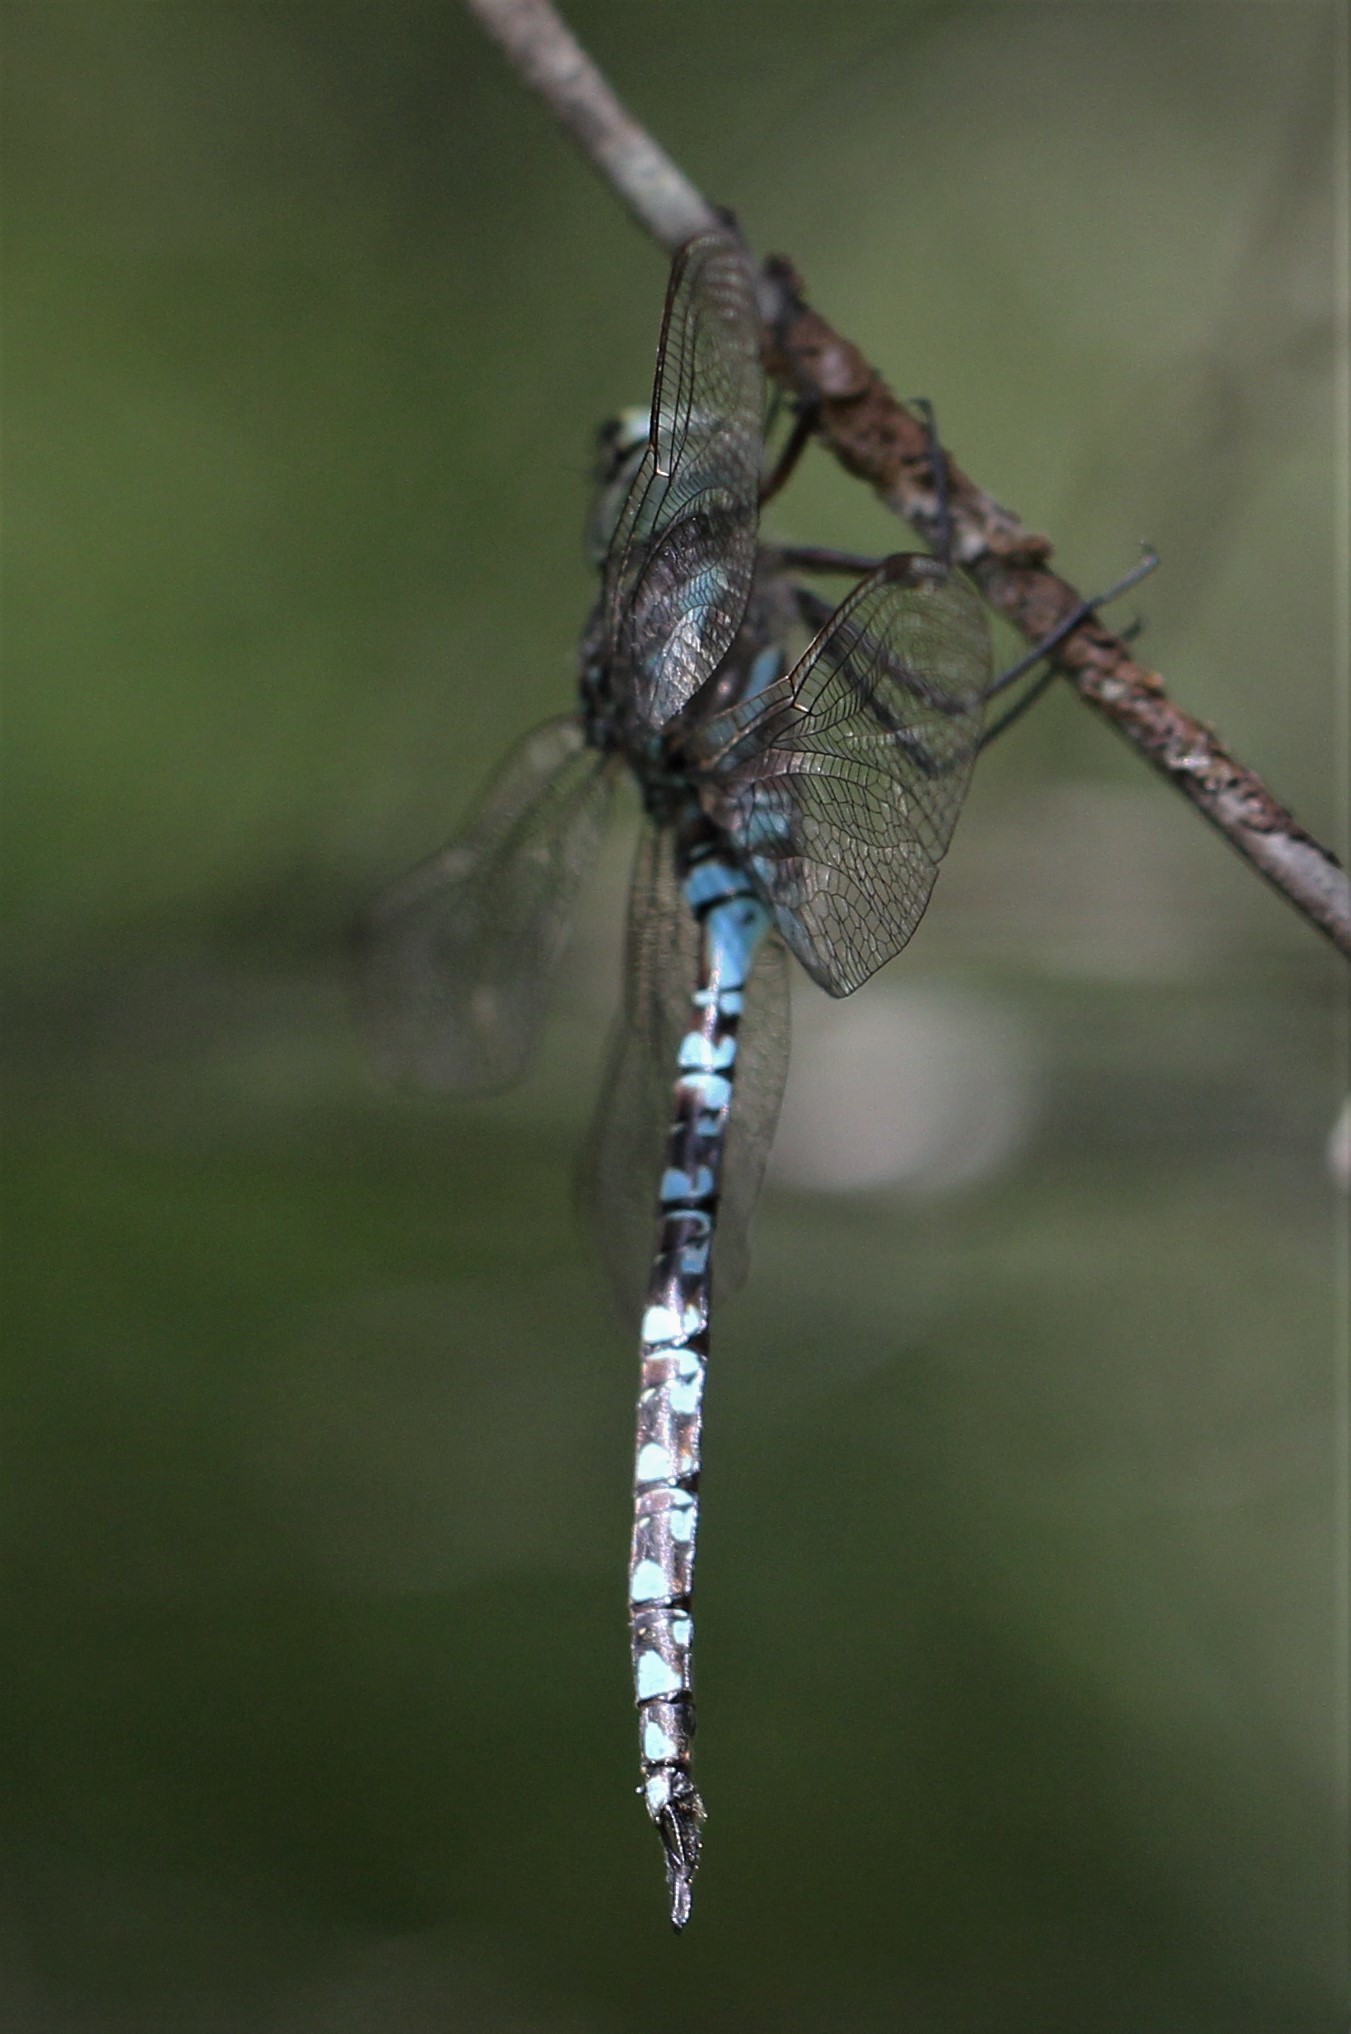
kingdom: Animalia
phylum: Arthropoda
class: Insecta
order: Odonata
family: Aeshnidae
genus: Aeshna
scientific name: Aeshna canadensis
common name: Canada darner
